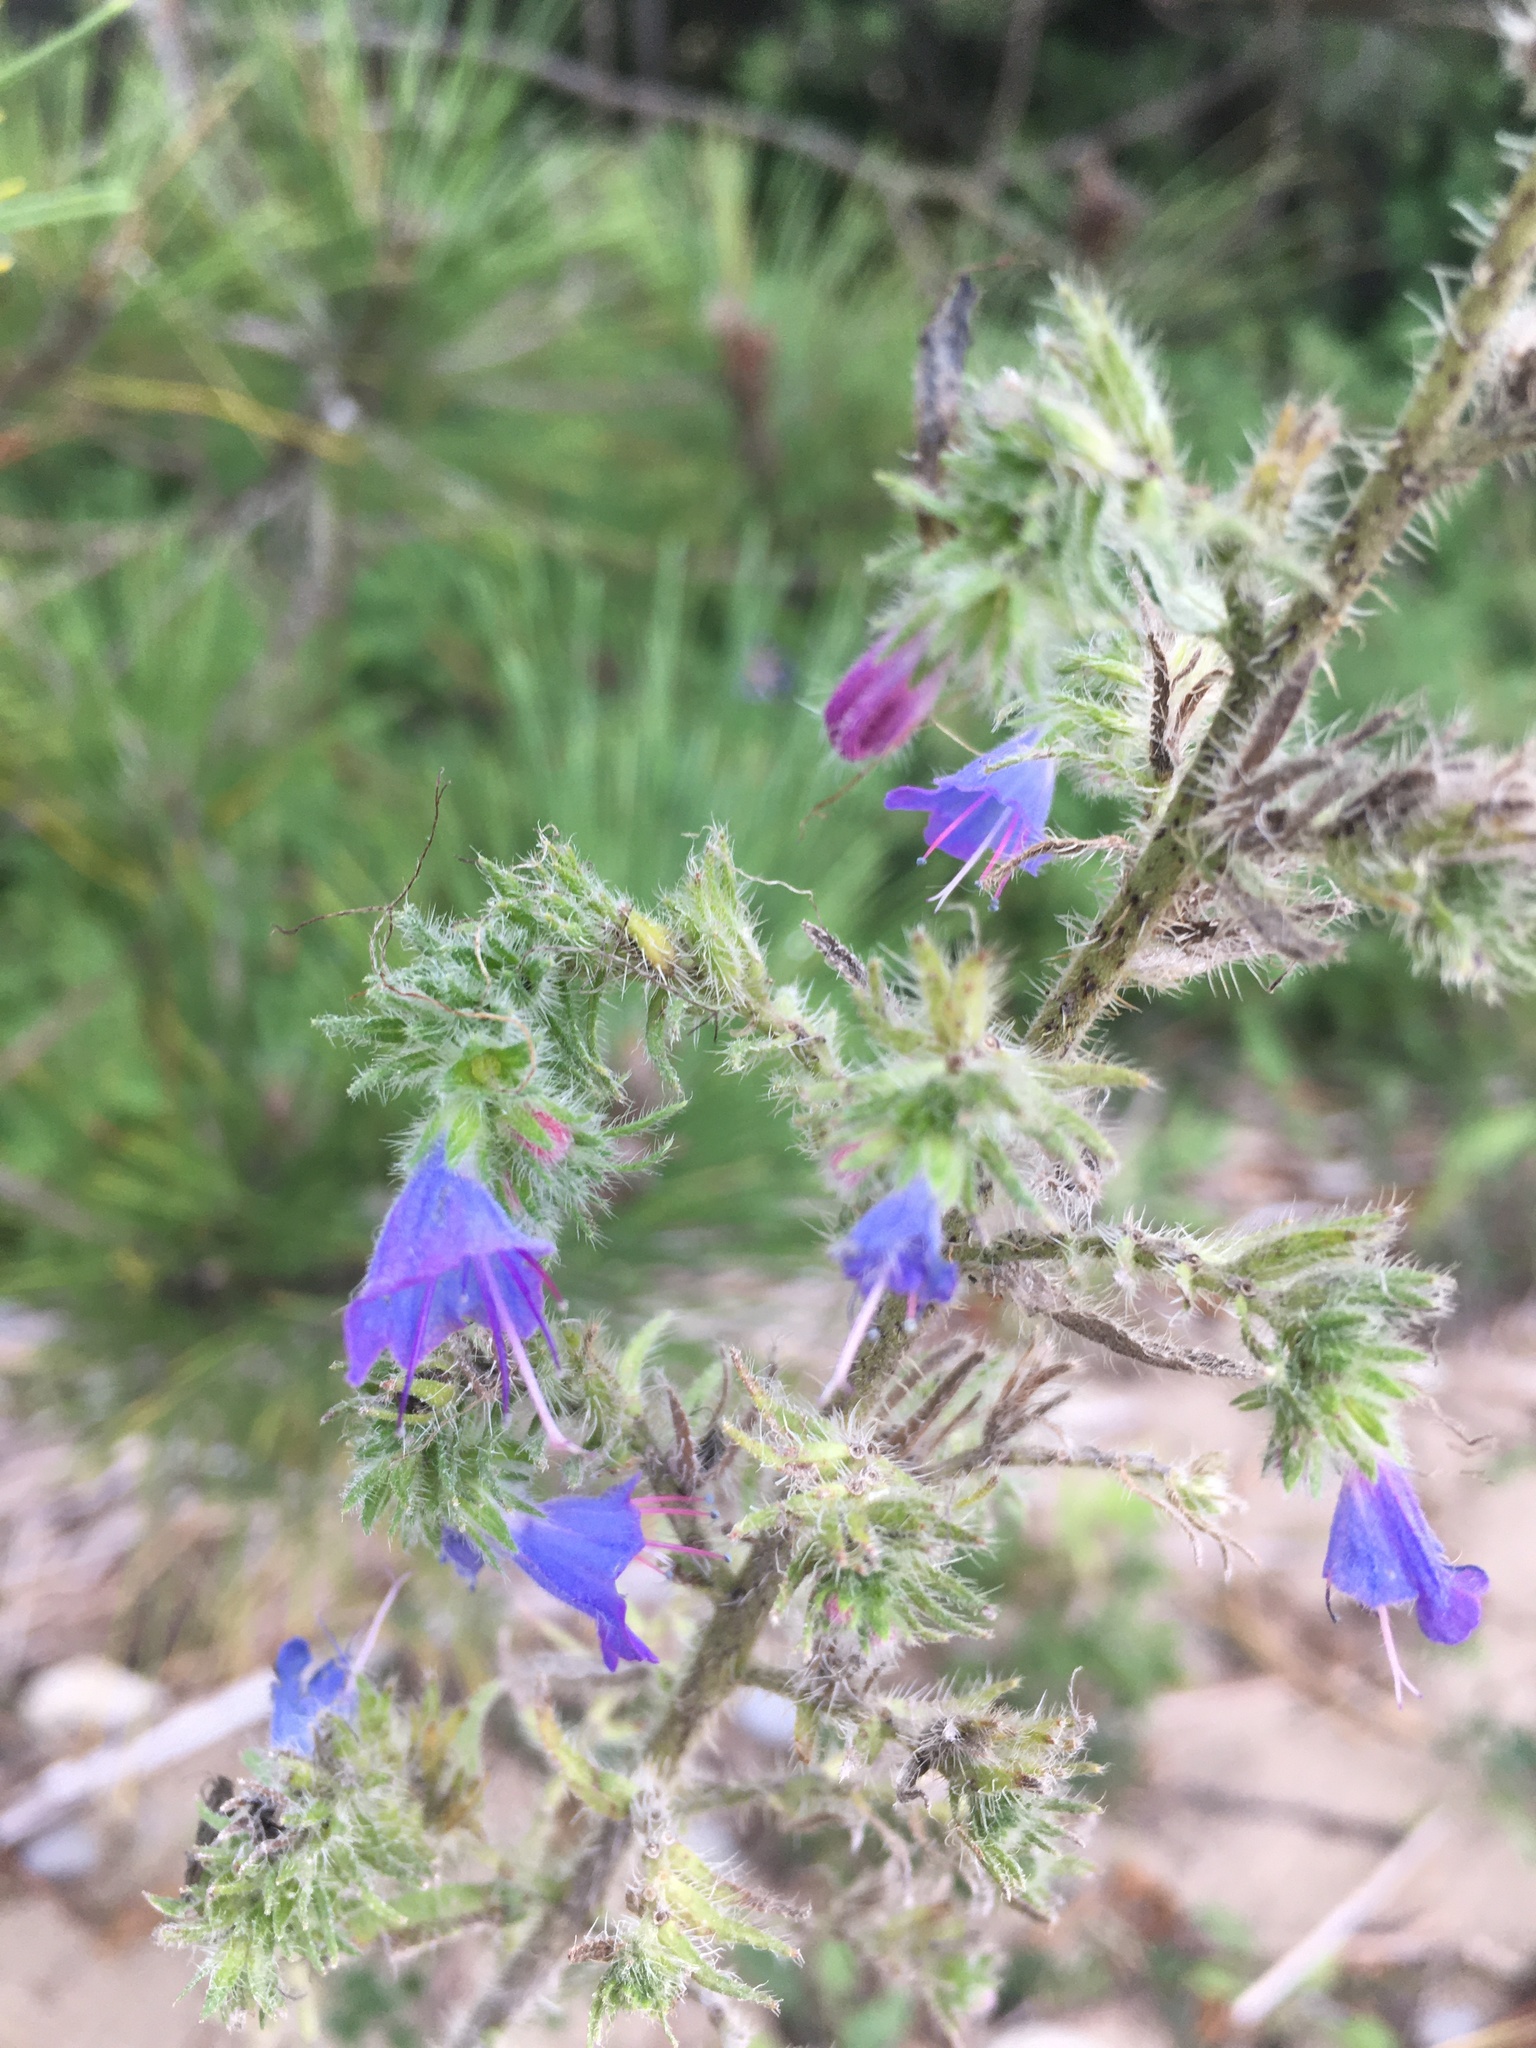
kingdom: Plantae
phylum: Tracheophyta
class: Magnoliopsida
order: Boraginales
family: Boraginaceae
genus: Echium
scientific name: Echium vulgare
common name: Common viper's bugloss
